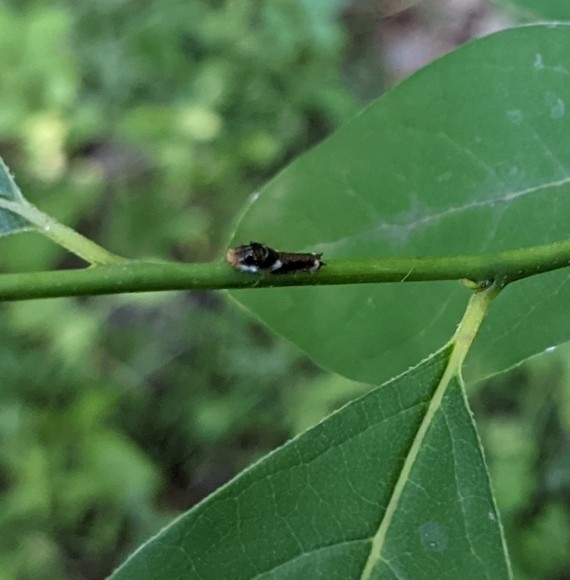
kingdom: Animalia
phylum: Arthropoda
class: Insecta
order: Lepidoptera
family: Papilionidae
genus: Papilio
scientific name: Papilio troilus
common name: Spicebush swallowtail
